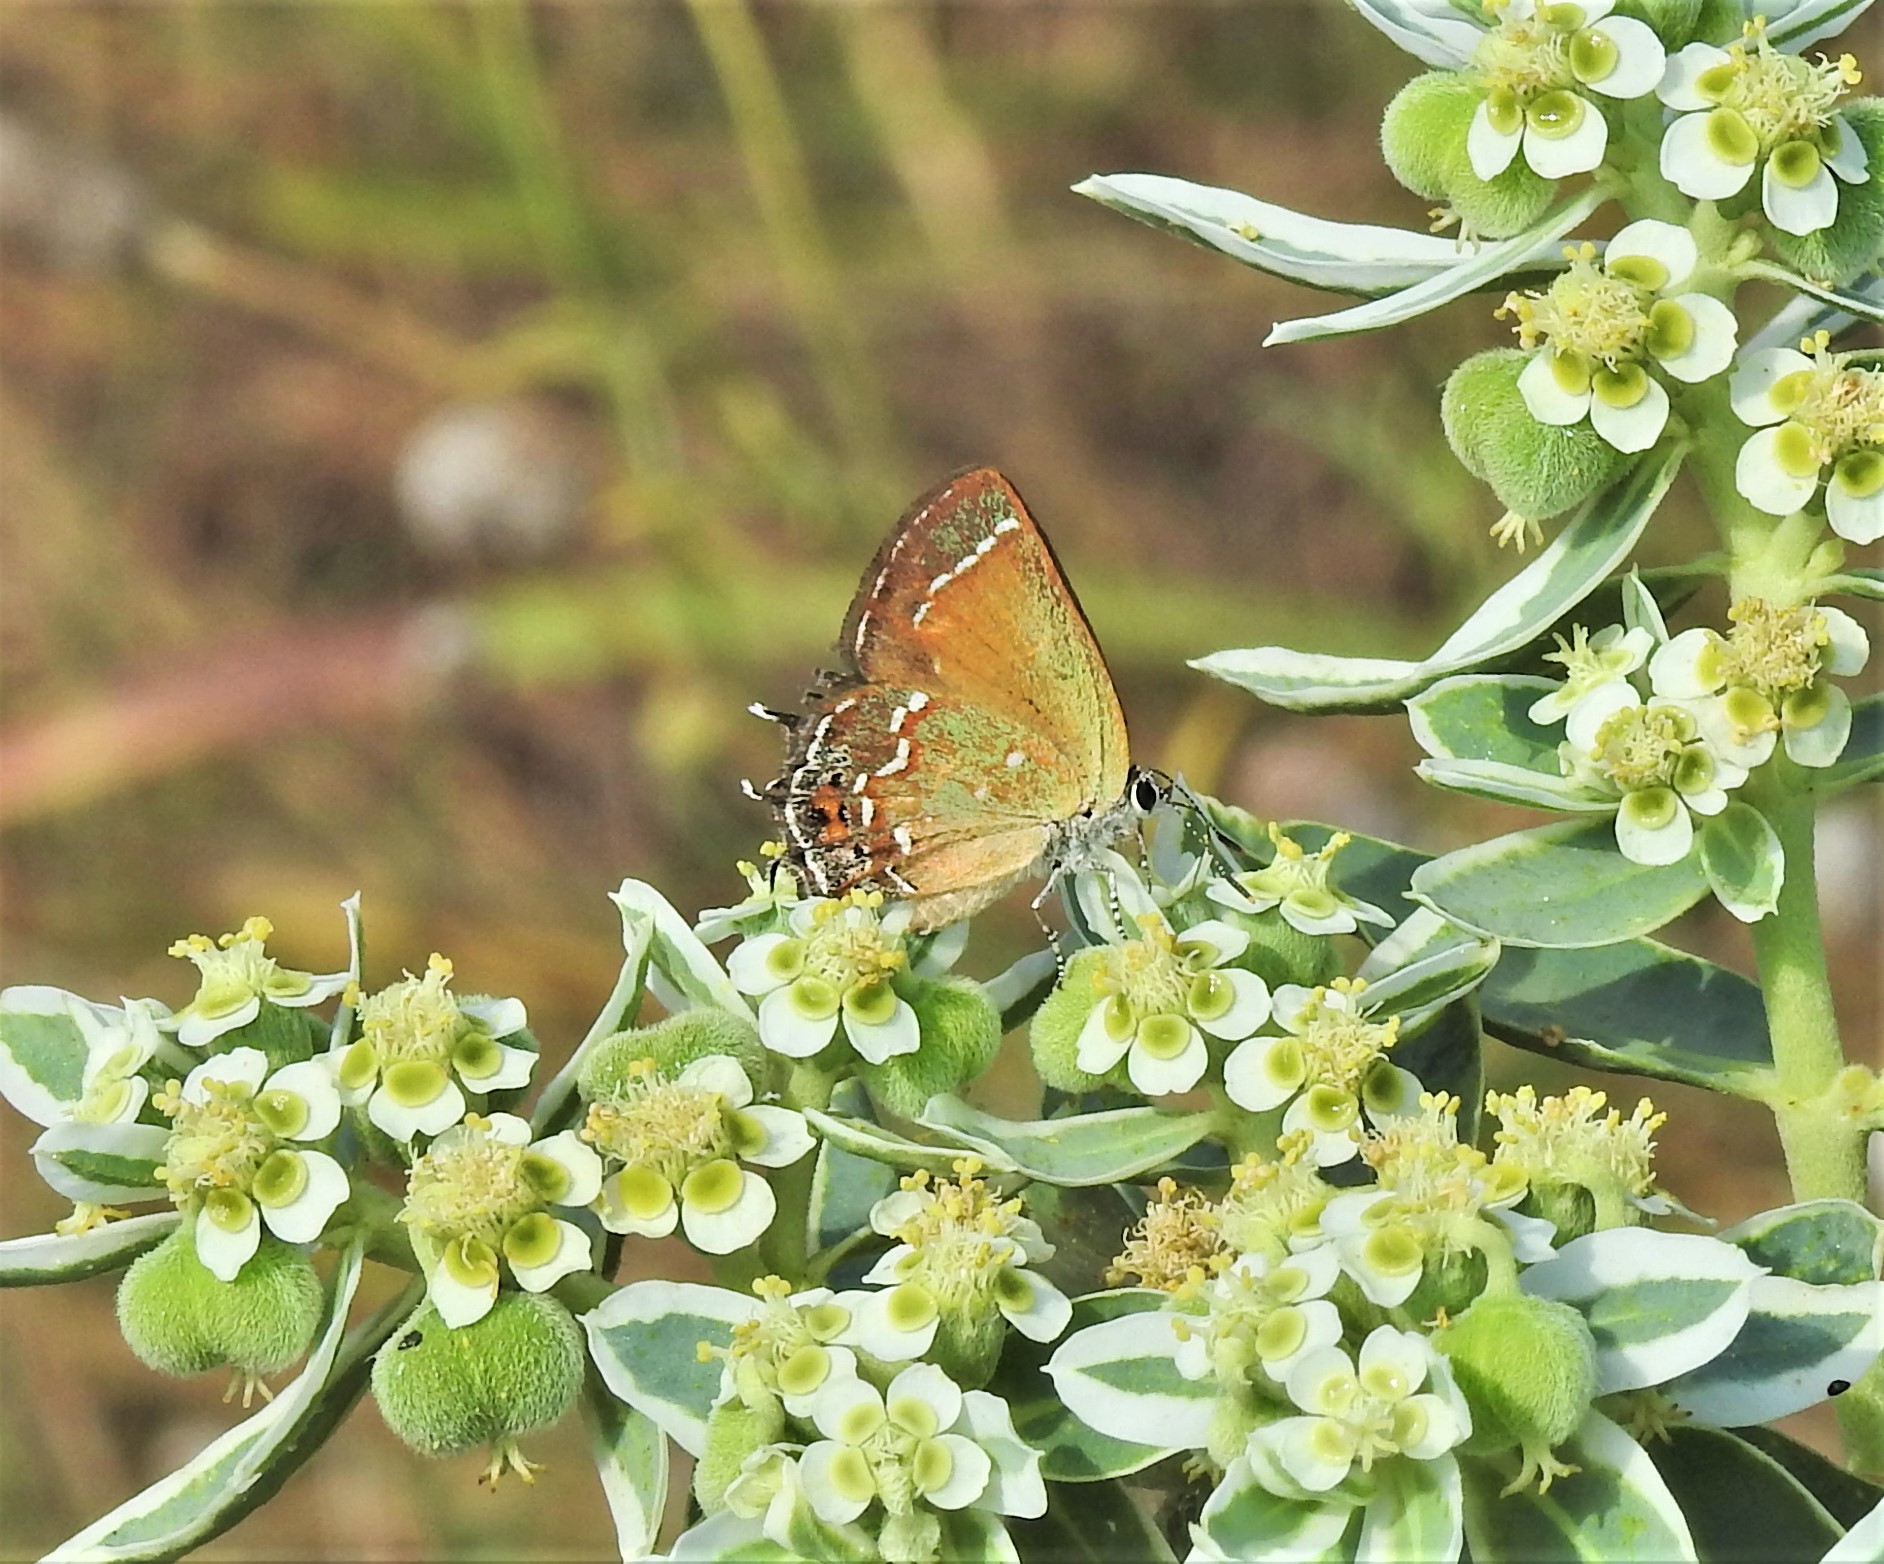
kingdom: Animalia
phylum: Arthropoda
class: Insecta
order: Lepidoptera
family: Lycaenidae
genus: Mitoura
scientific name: Mitoura gryneus
